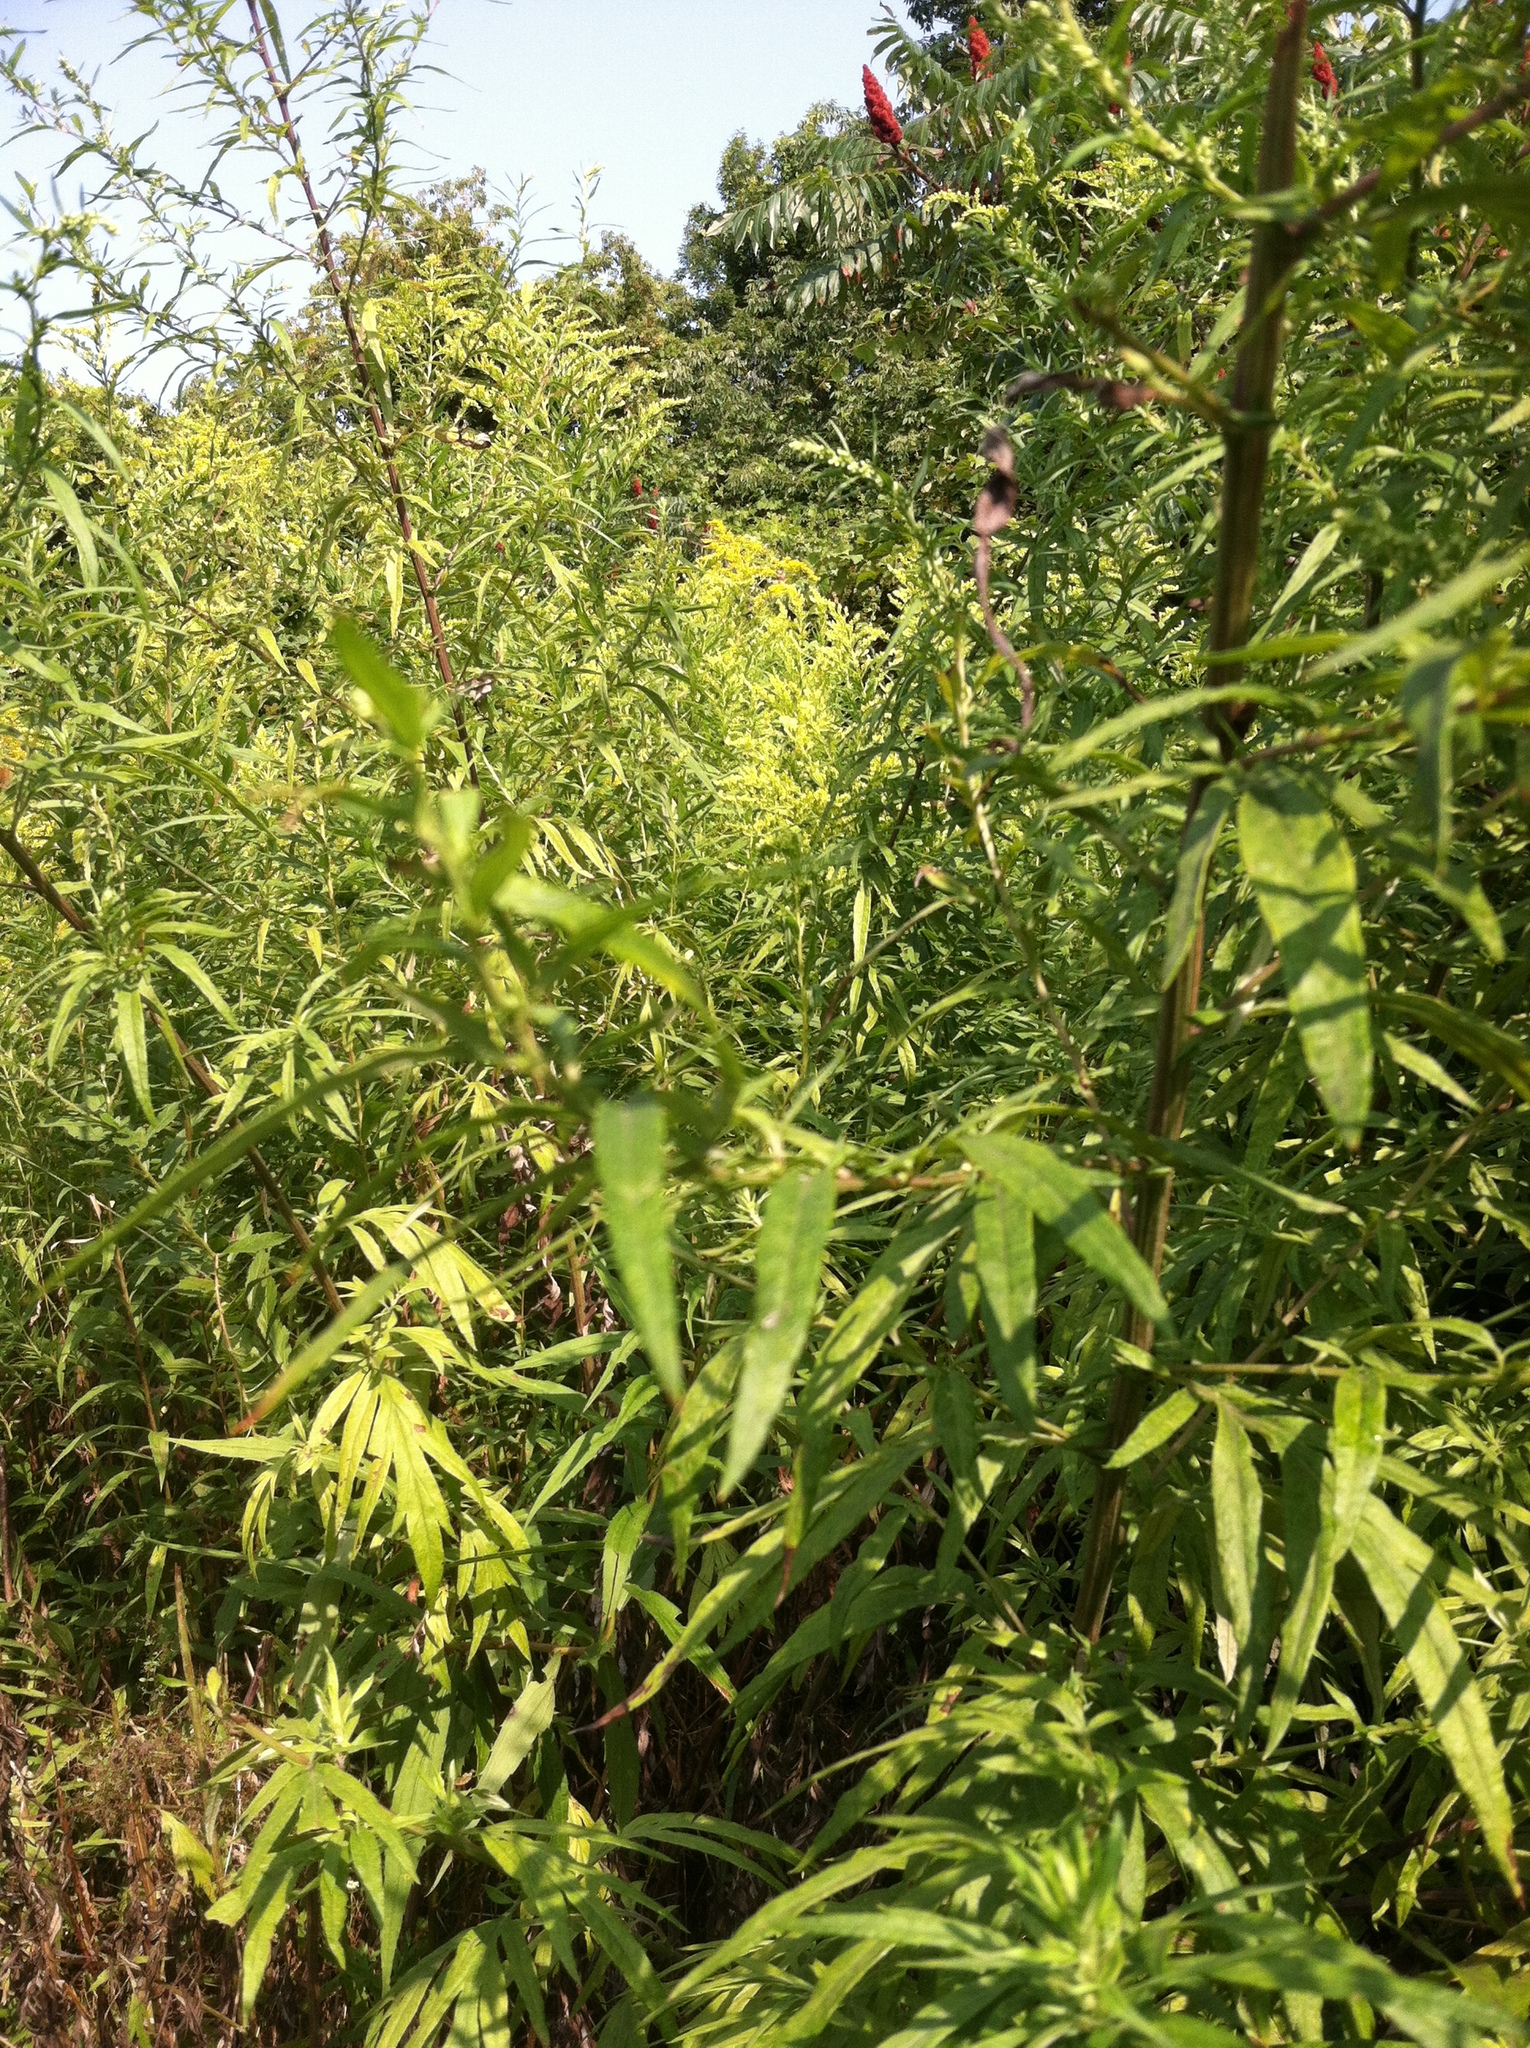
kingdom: Plantae
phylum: Tracheophyta
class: Magnoliopsida
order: Asterales
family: Asteraceae
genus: Artemisia
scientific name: Artemisia vulgaris
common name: Mugwort
